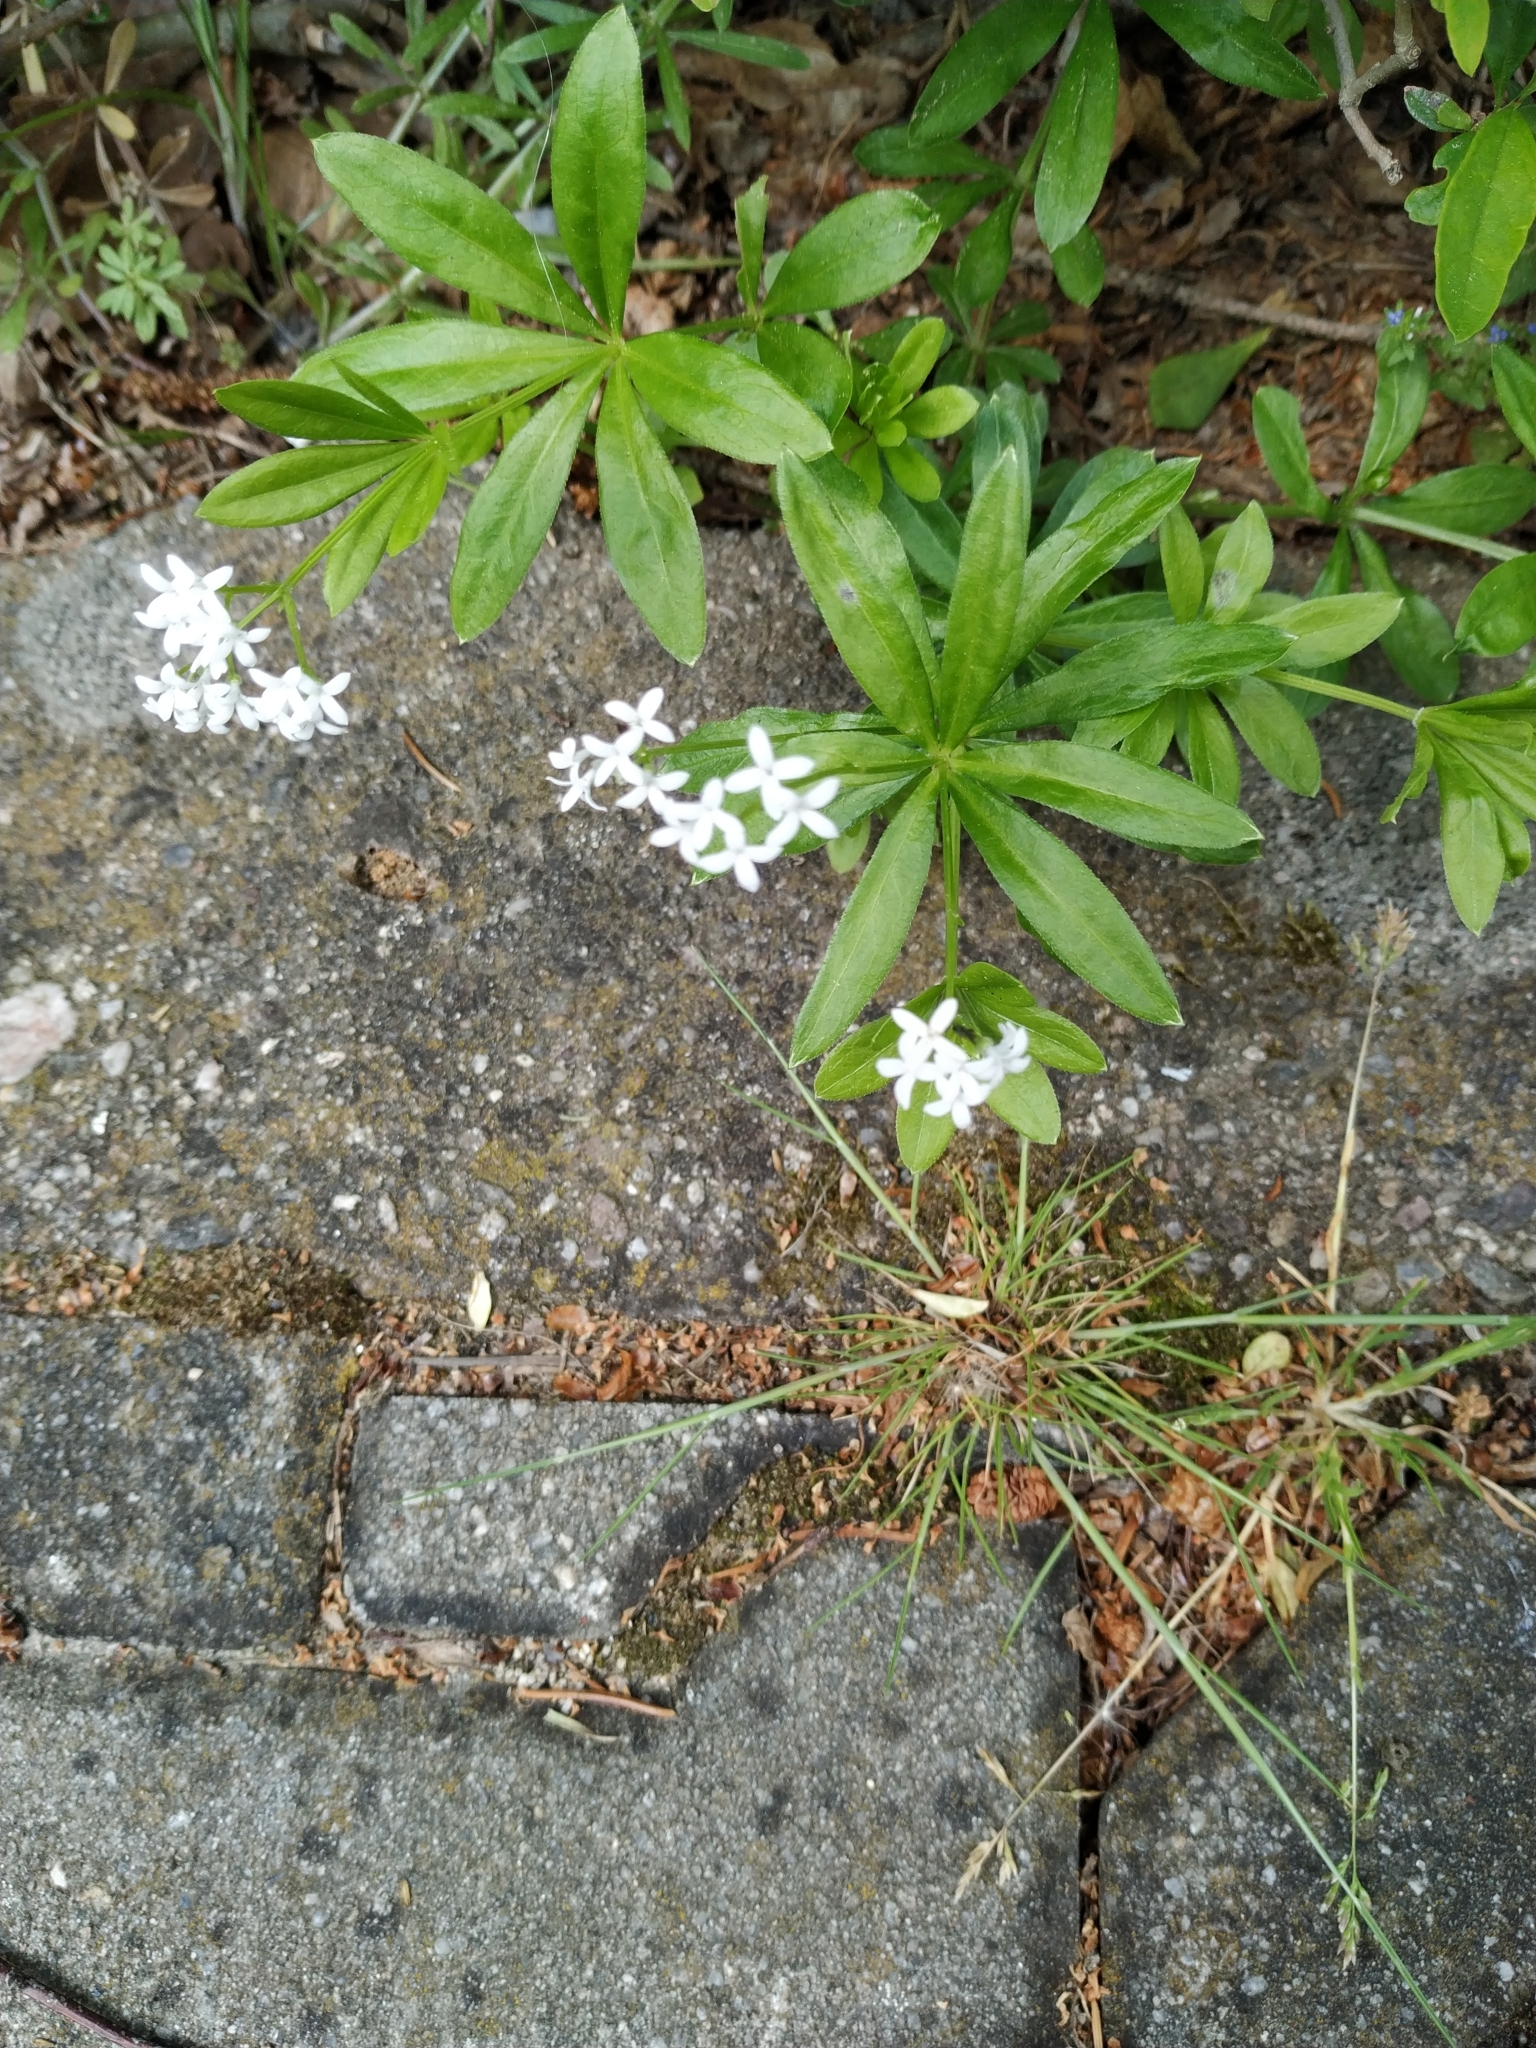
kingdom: Plantae
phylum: Tracheophyta
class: Magnoliopsida
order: Gentianales
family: Rubiaceae
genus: Galium
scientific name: Galium odoratum
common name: Sweet woodruff
